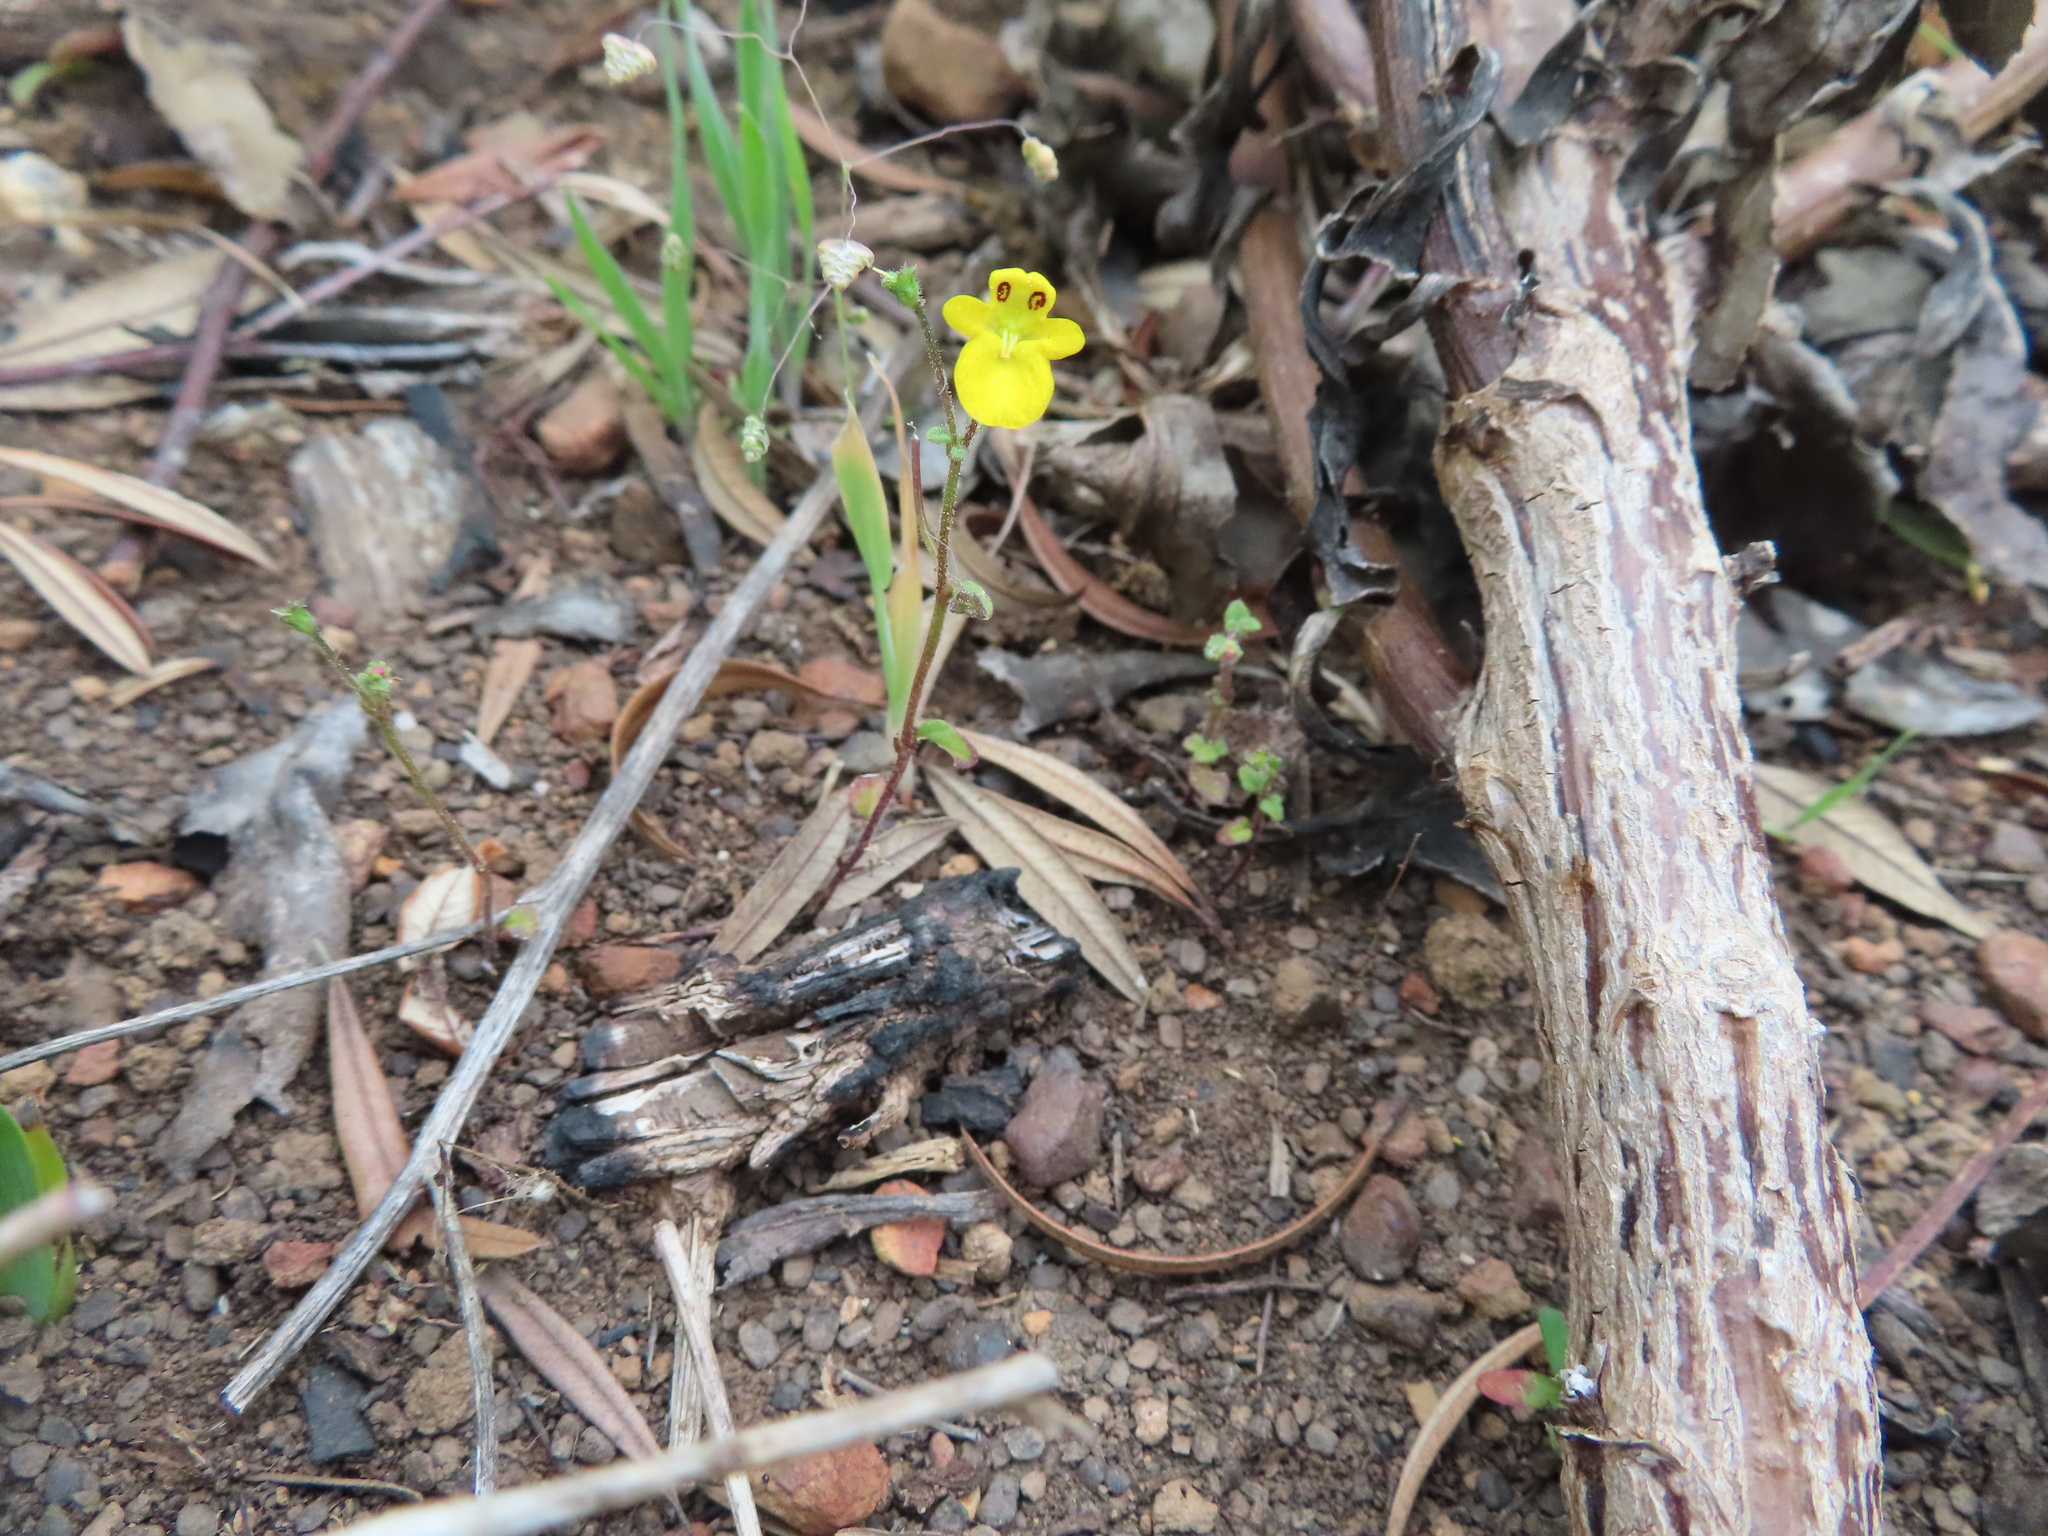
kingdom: Plantae
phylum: Tracheophyta
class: Magnoliopsida
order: Lamiales
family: Scrophulariaceae
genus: Hemimeris
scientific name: Hemimeris racemosa
